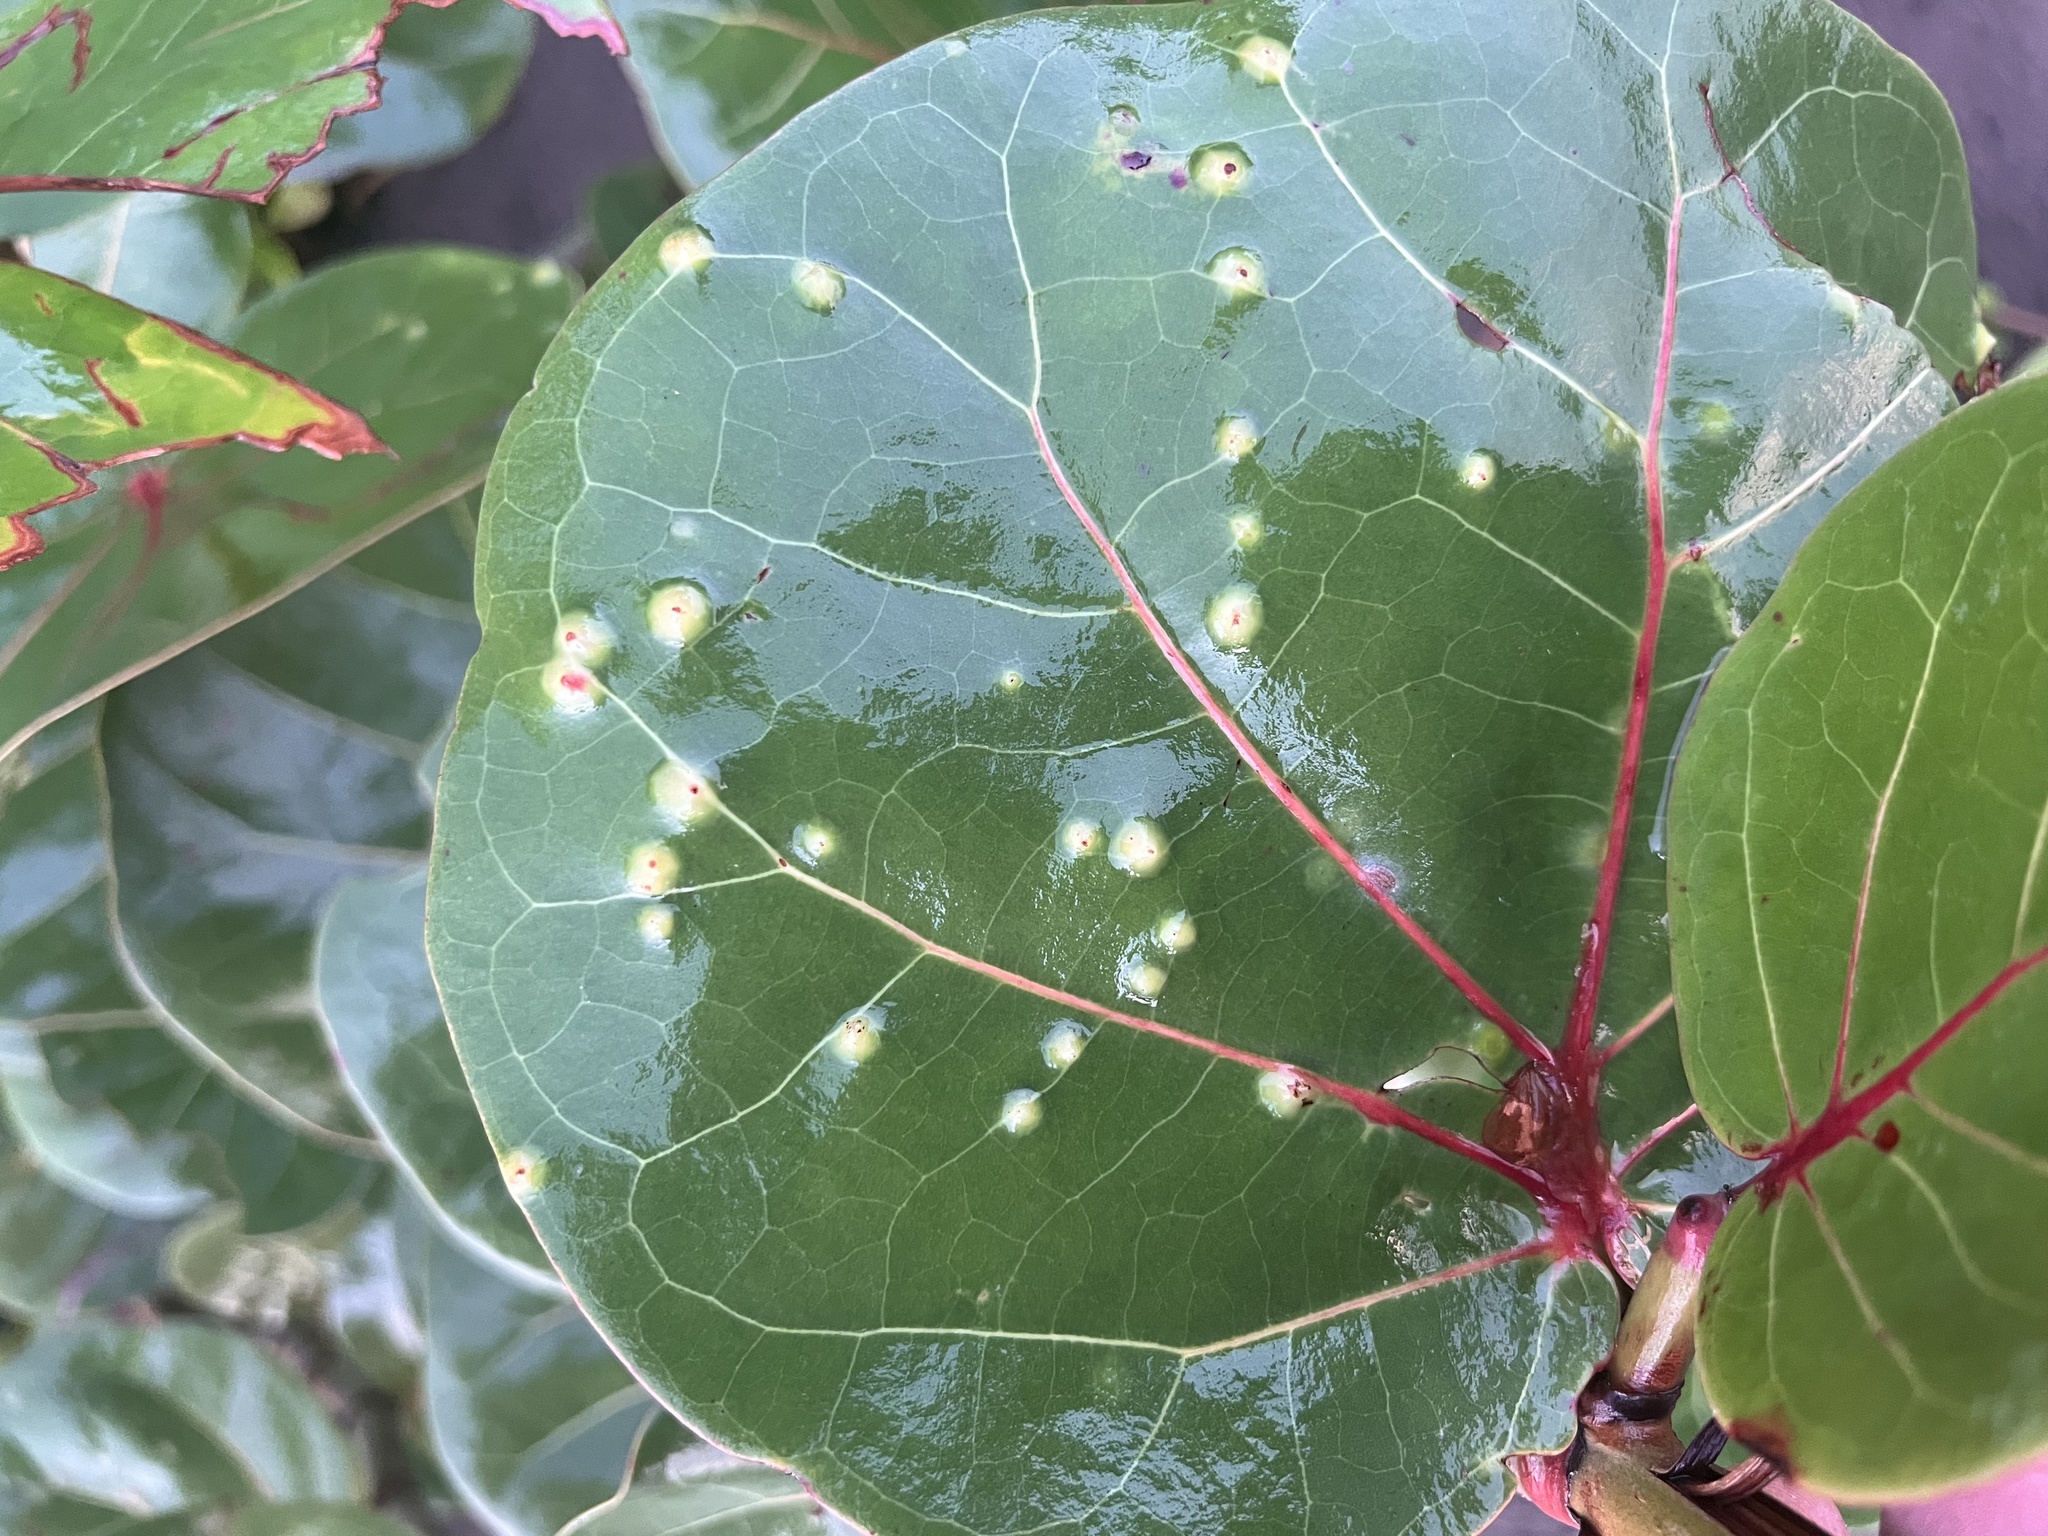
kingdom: Animalia
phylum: Arthropoda
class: Insecta
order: Diptera
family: Cecidomyiidae
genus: Ctenodactylomyia
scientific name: Ctenodactylomyia watsoni
